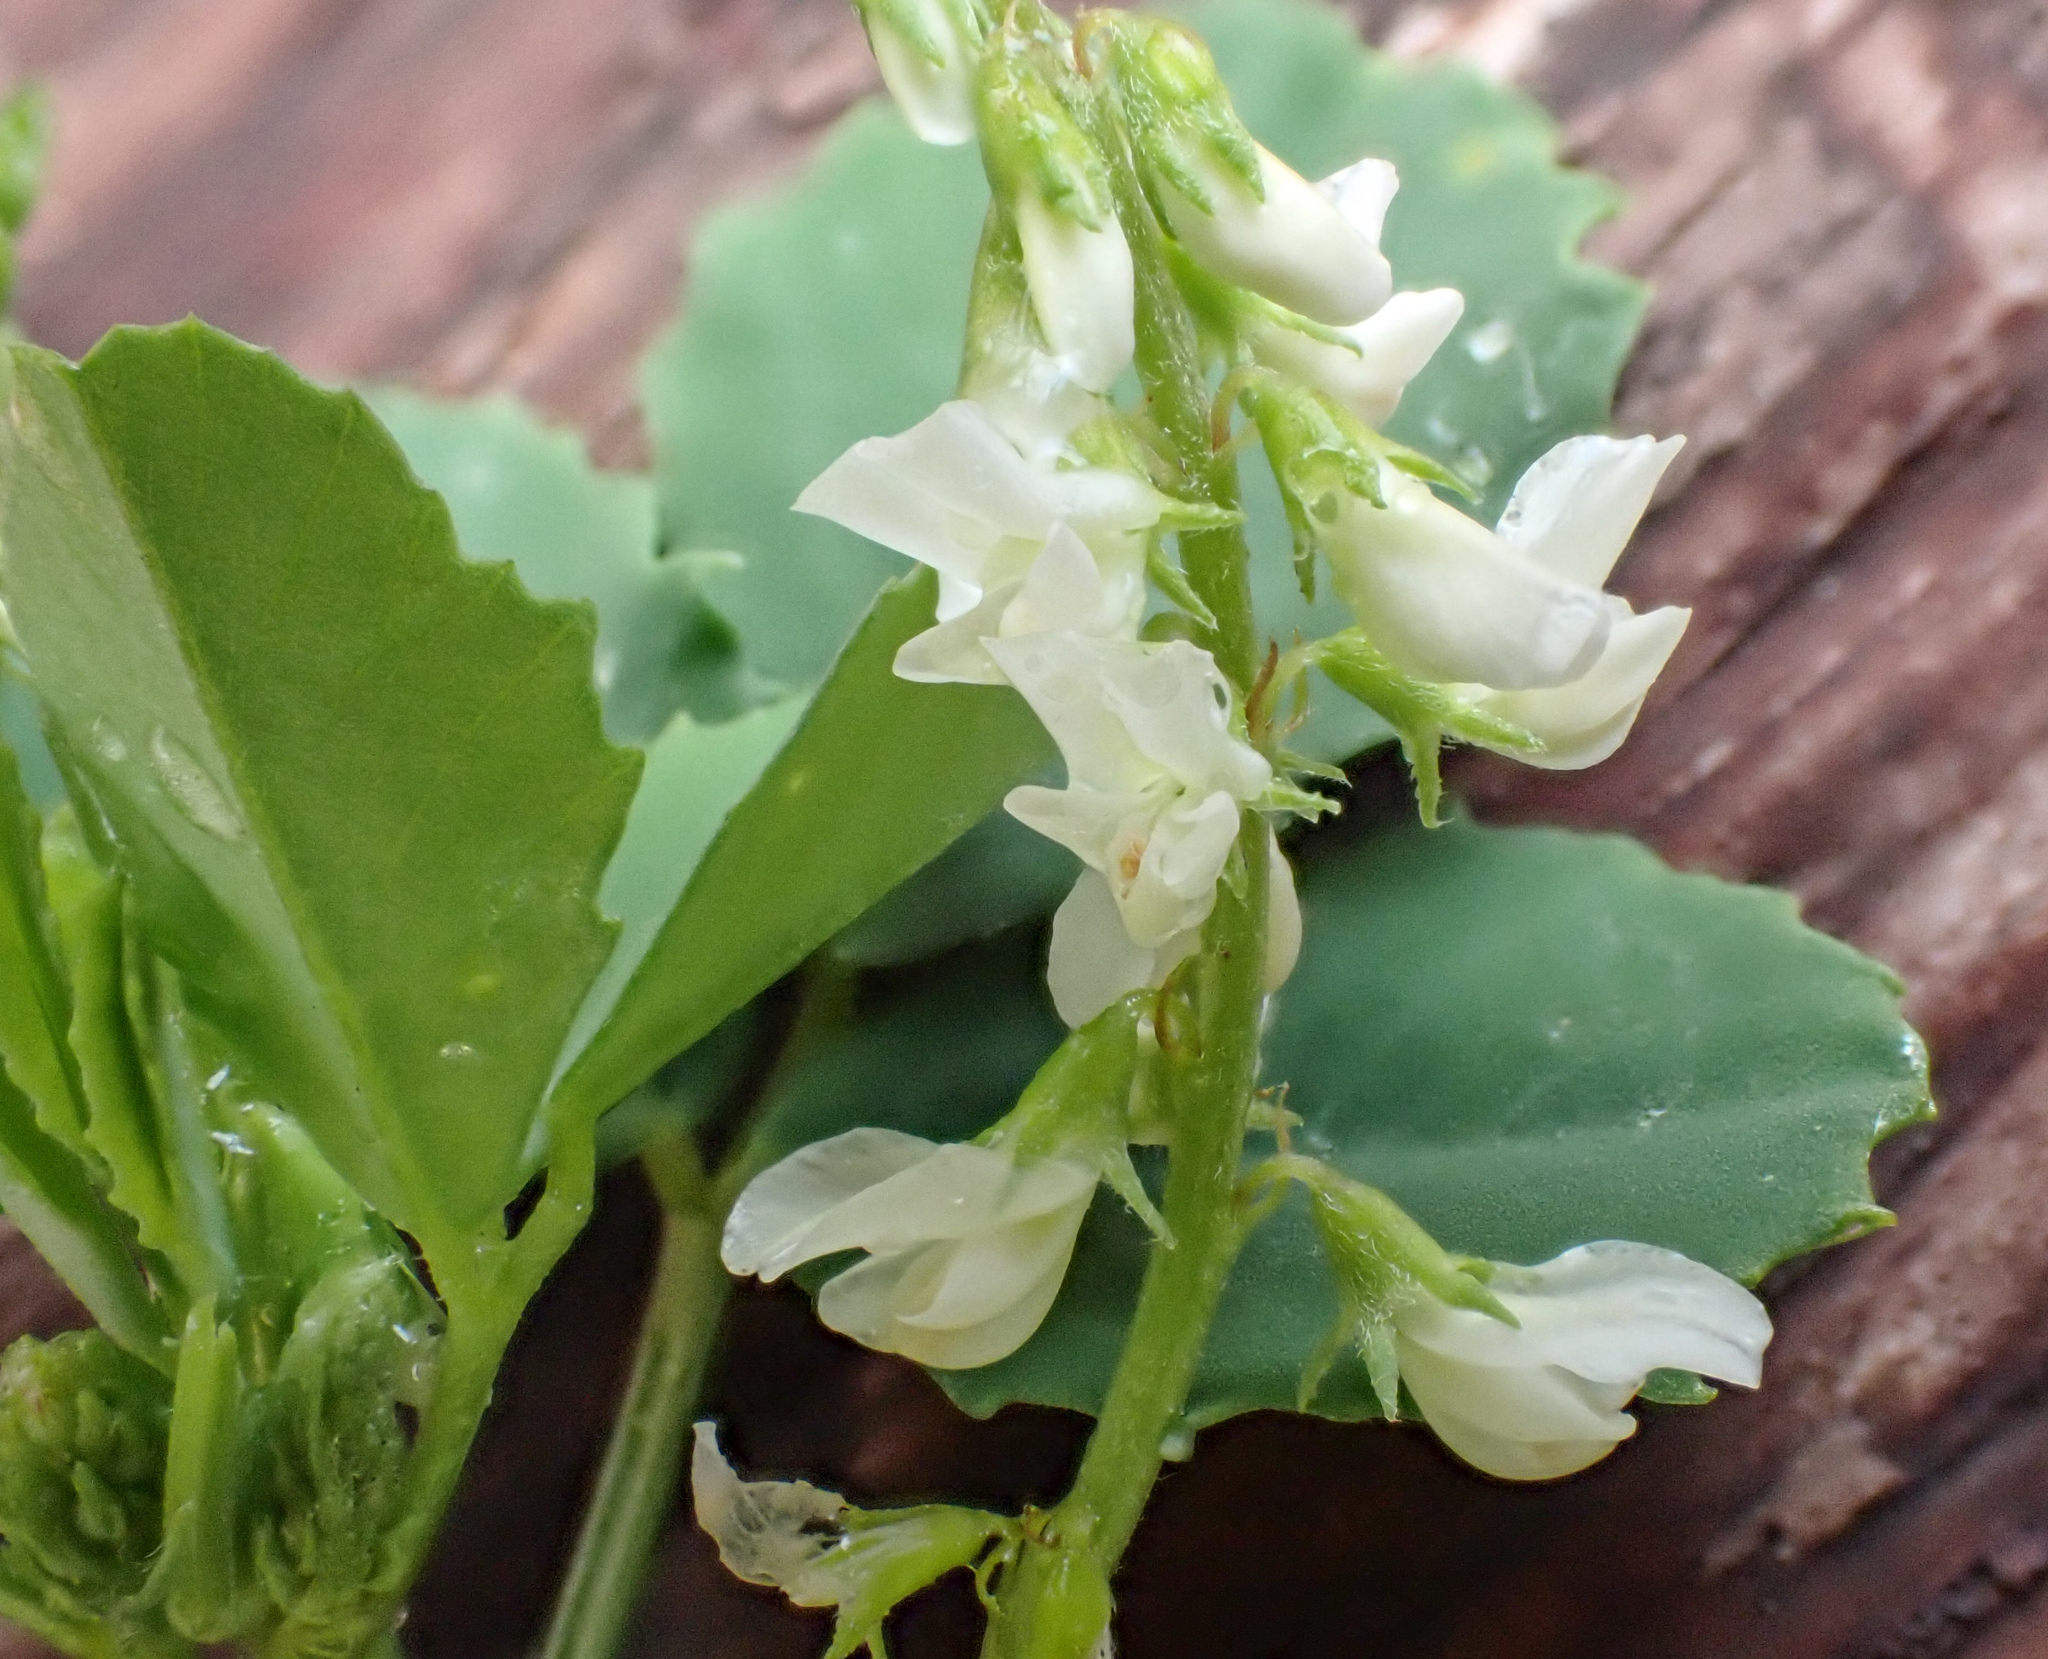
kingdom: Plantae
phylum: Tracheophyta
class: Magnoliopsida
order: Fabales
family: Fabaceae
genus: Melilotus
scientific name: Melilotus albus
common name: White melilot
